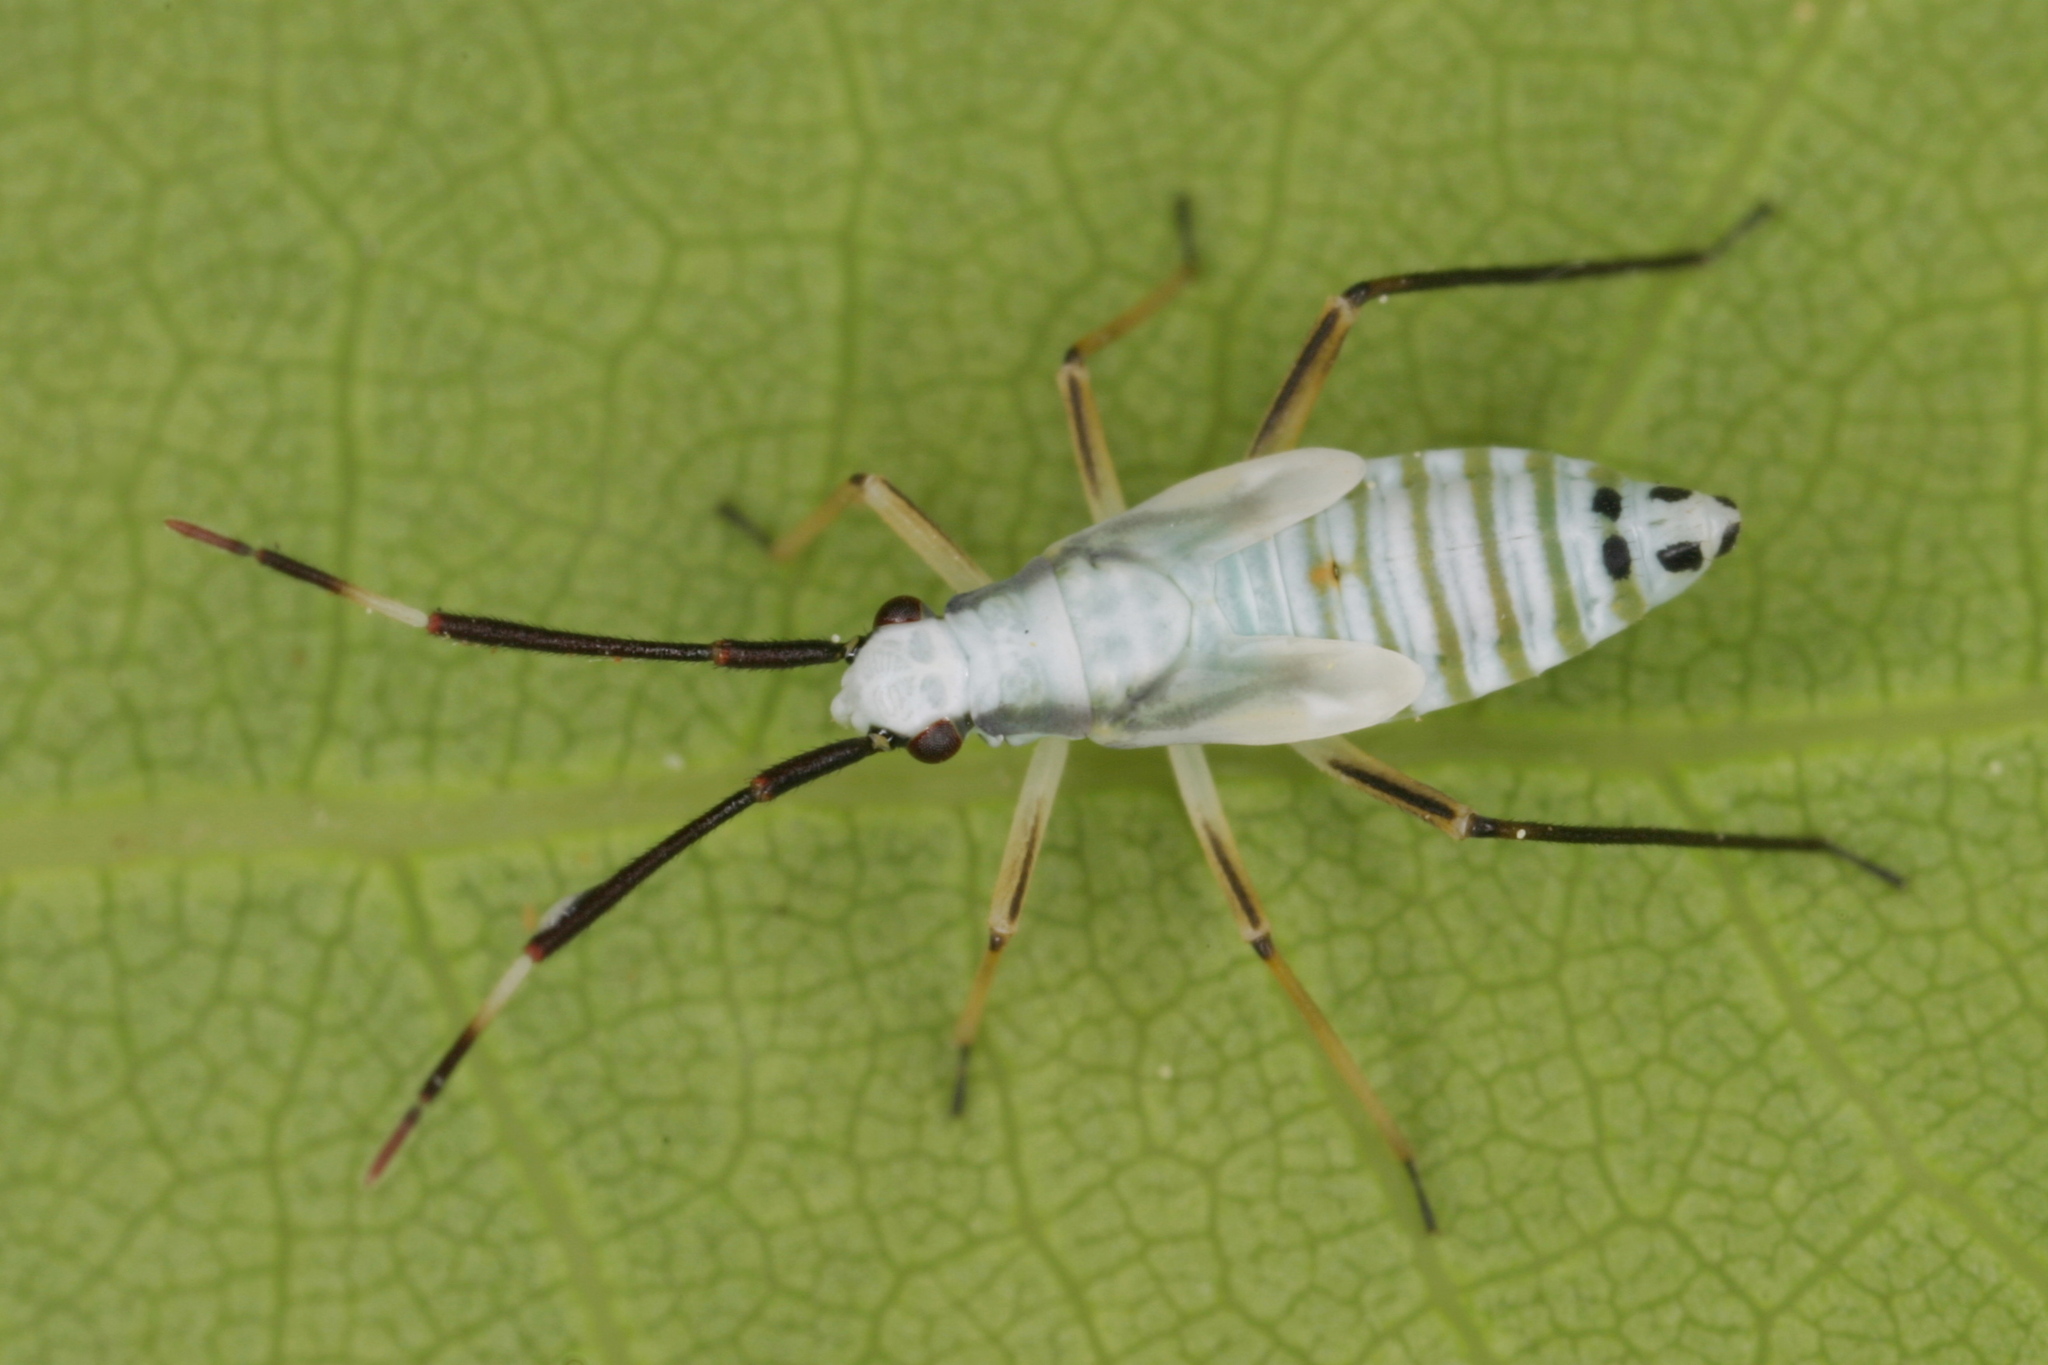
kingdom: Animalia
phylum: Arthropoda
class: Insecta
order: Hemiptera
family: Miridae
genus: Cyllecoris
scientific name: Cyllecoris histrionius
